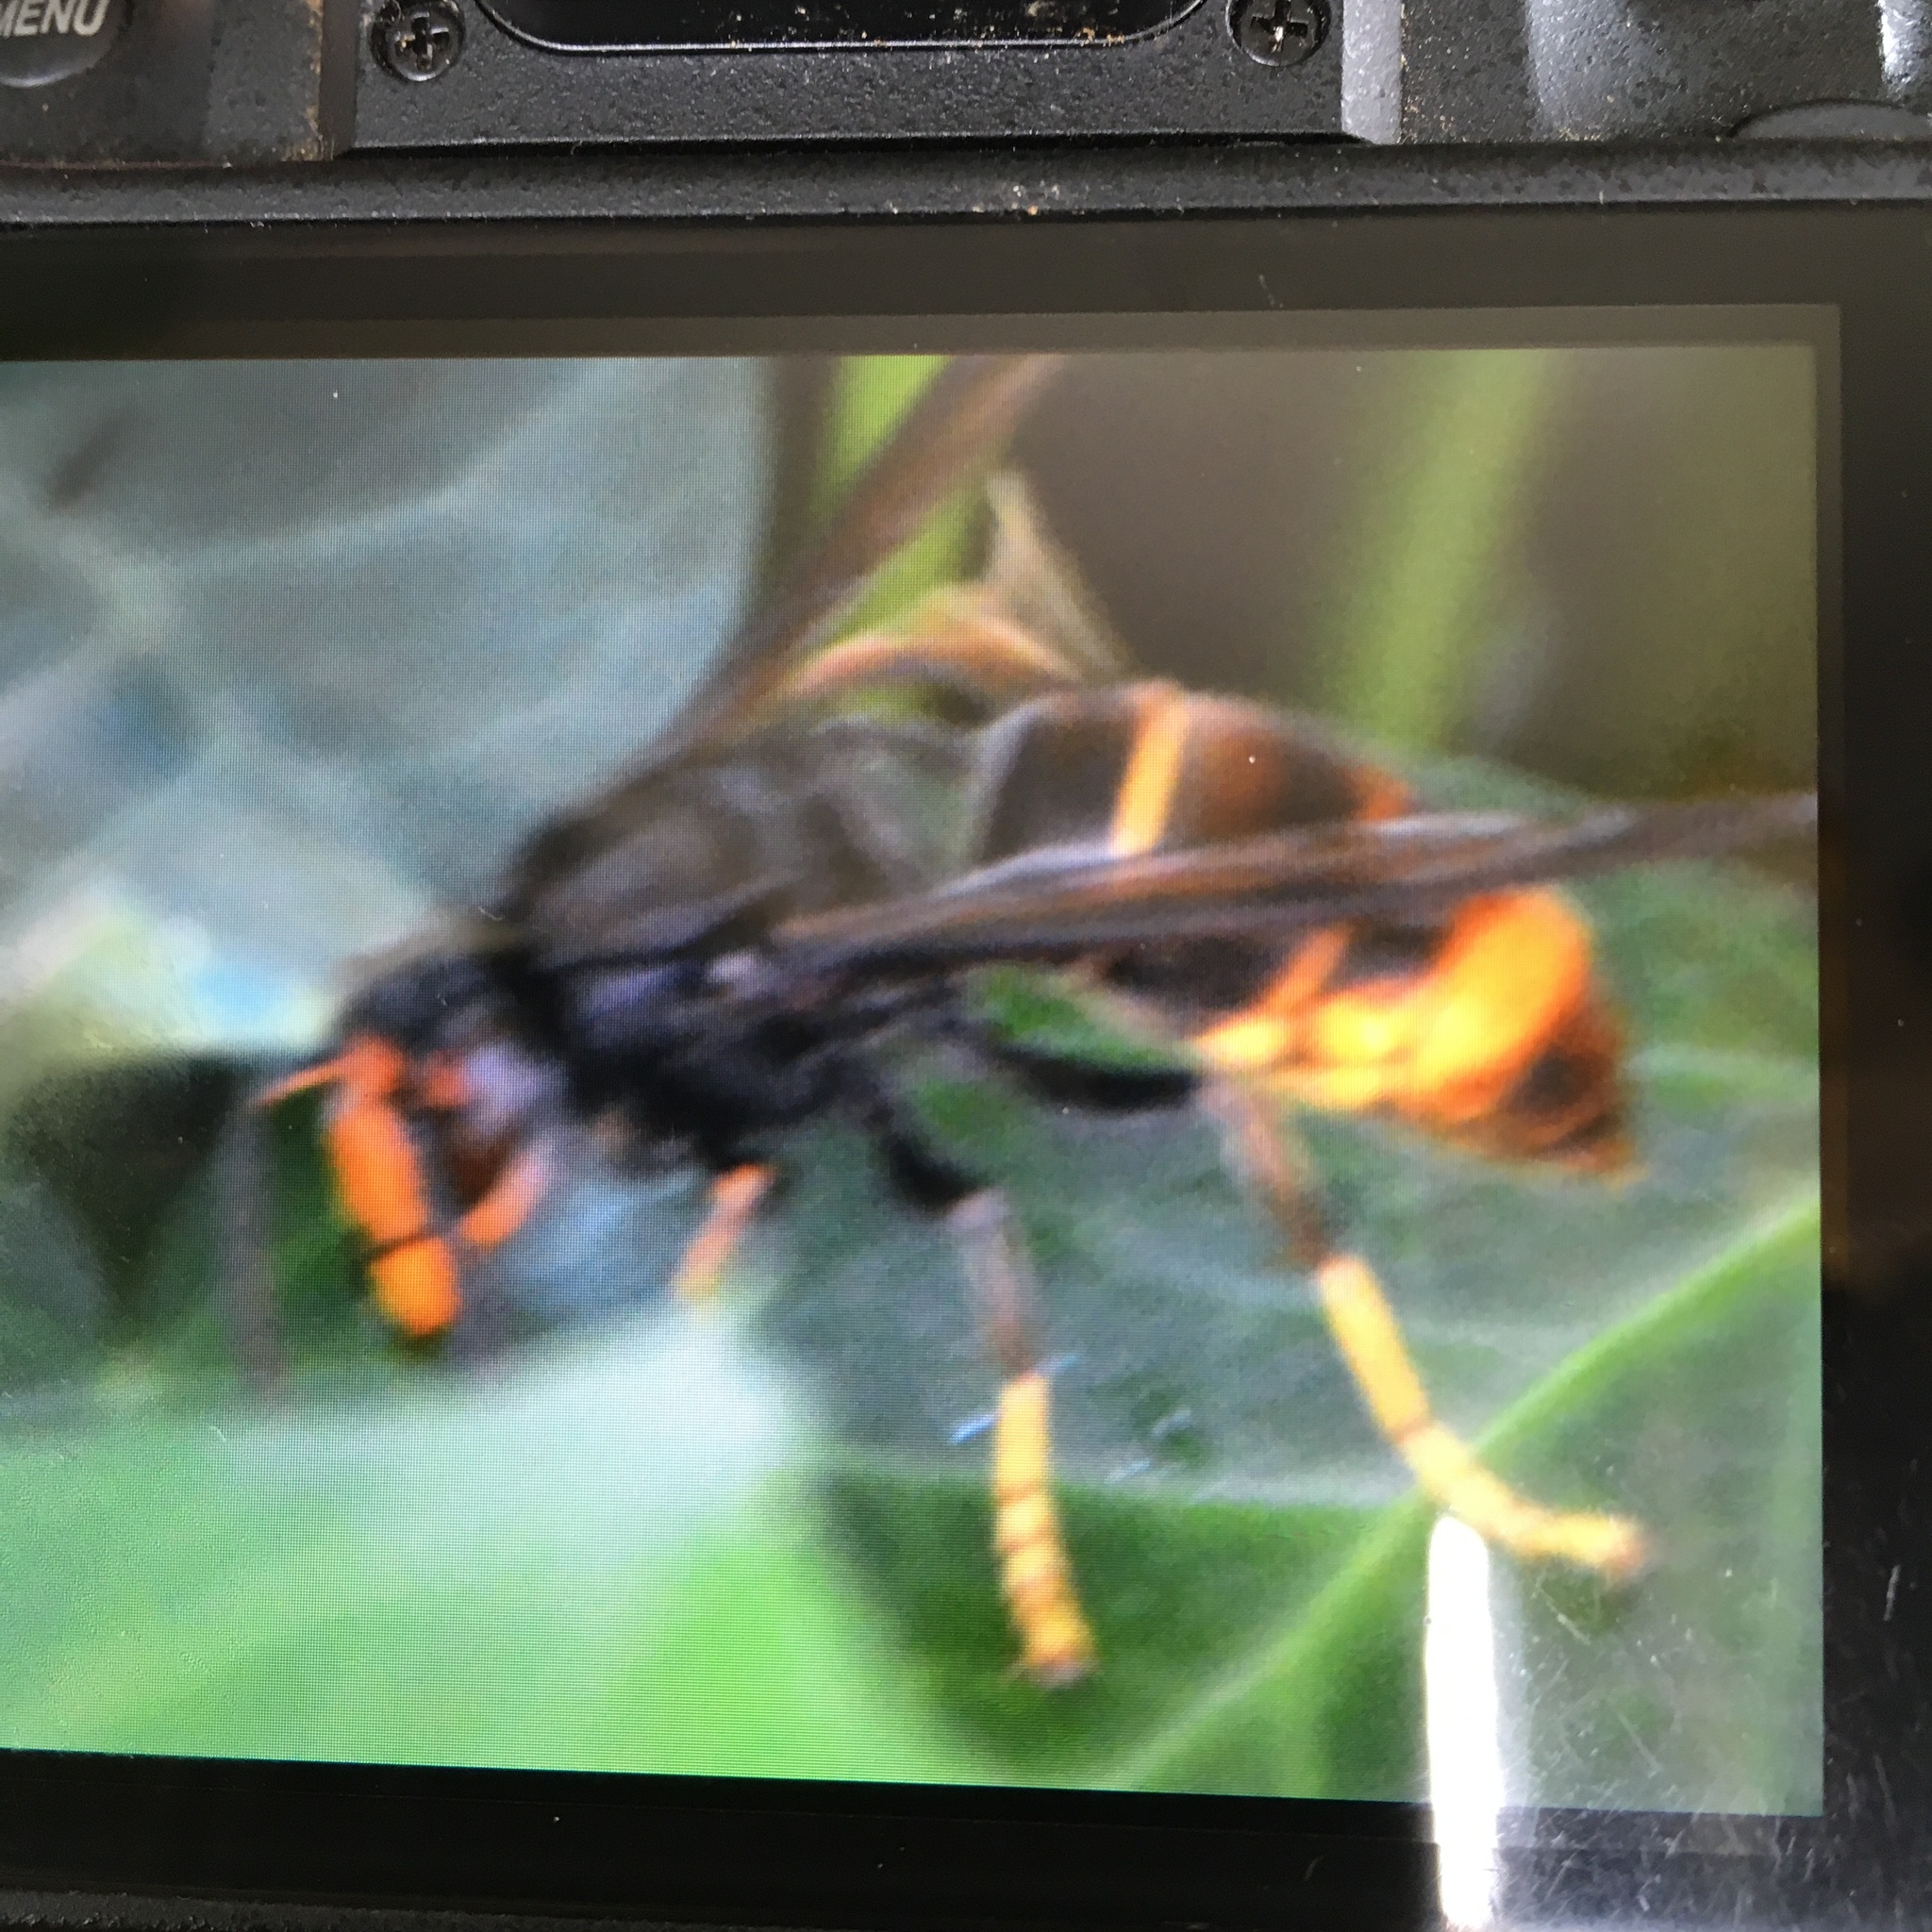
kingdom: Animalia
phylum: Arthropoda
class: Insecta
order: Hymenoptera
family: Vespidae
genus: Vespa
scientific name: Vespa velutina
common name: Asian hornet
